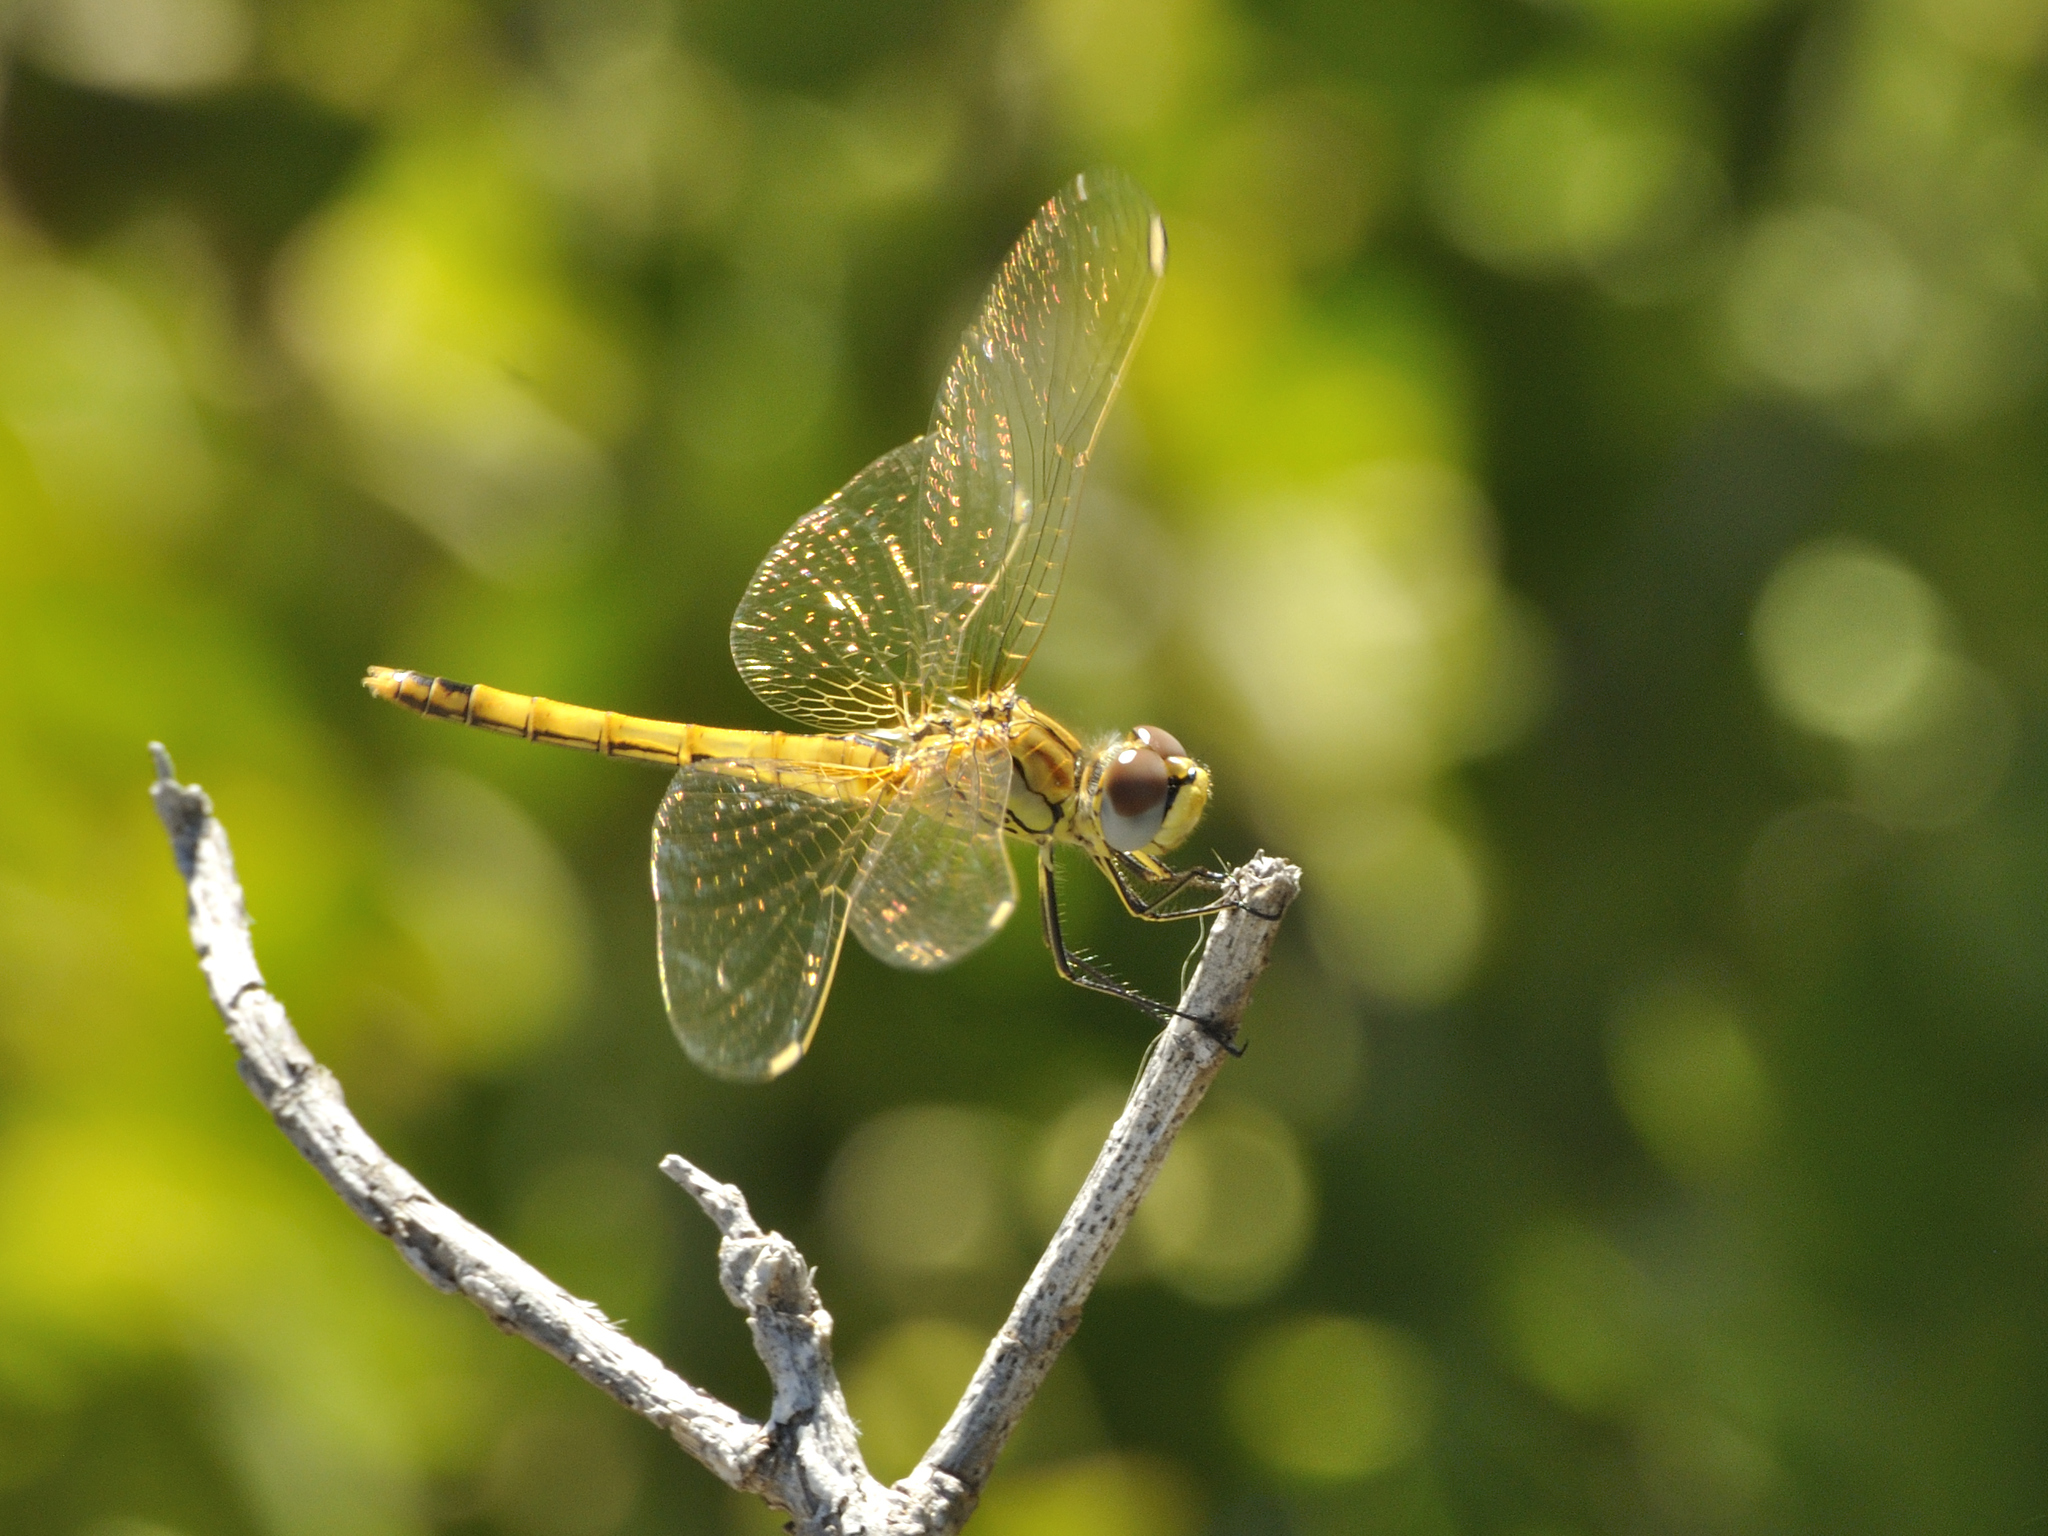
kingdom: Animalia
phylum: Arthropoda
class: Insecta
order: Odonata
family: Libellulidae
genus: Sympetrum
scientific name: Sympetrum fonscolombii
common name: Red-veined darter
